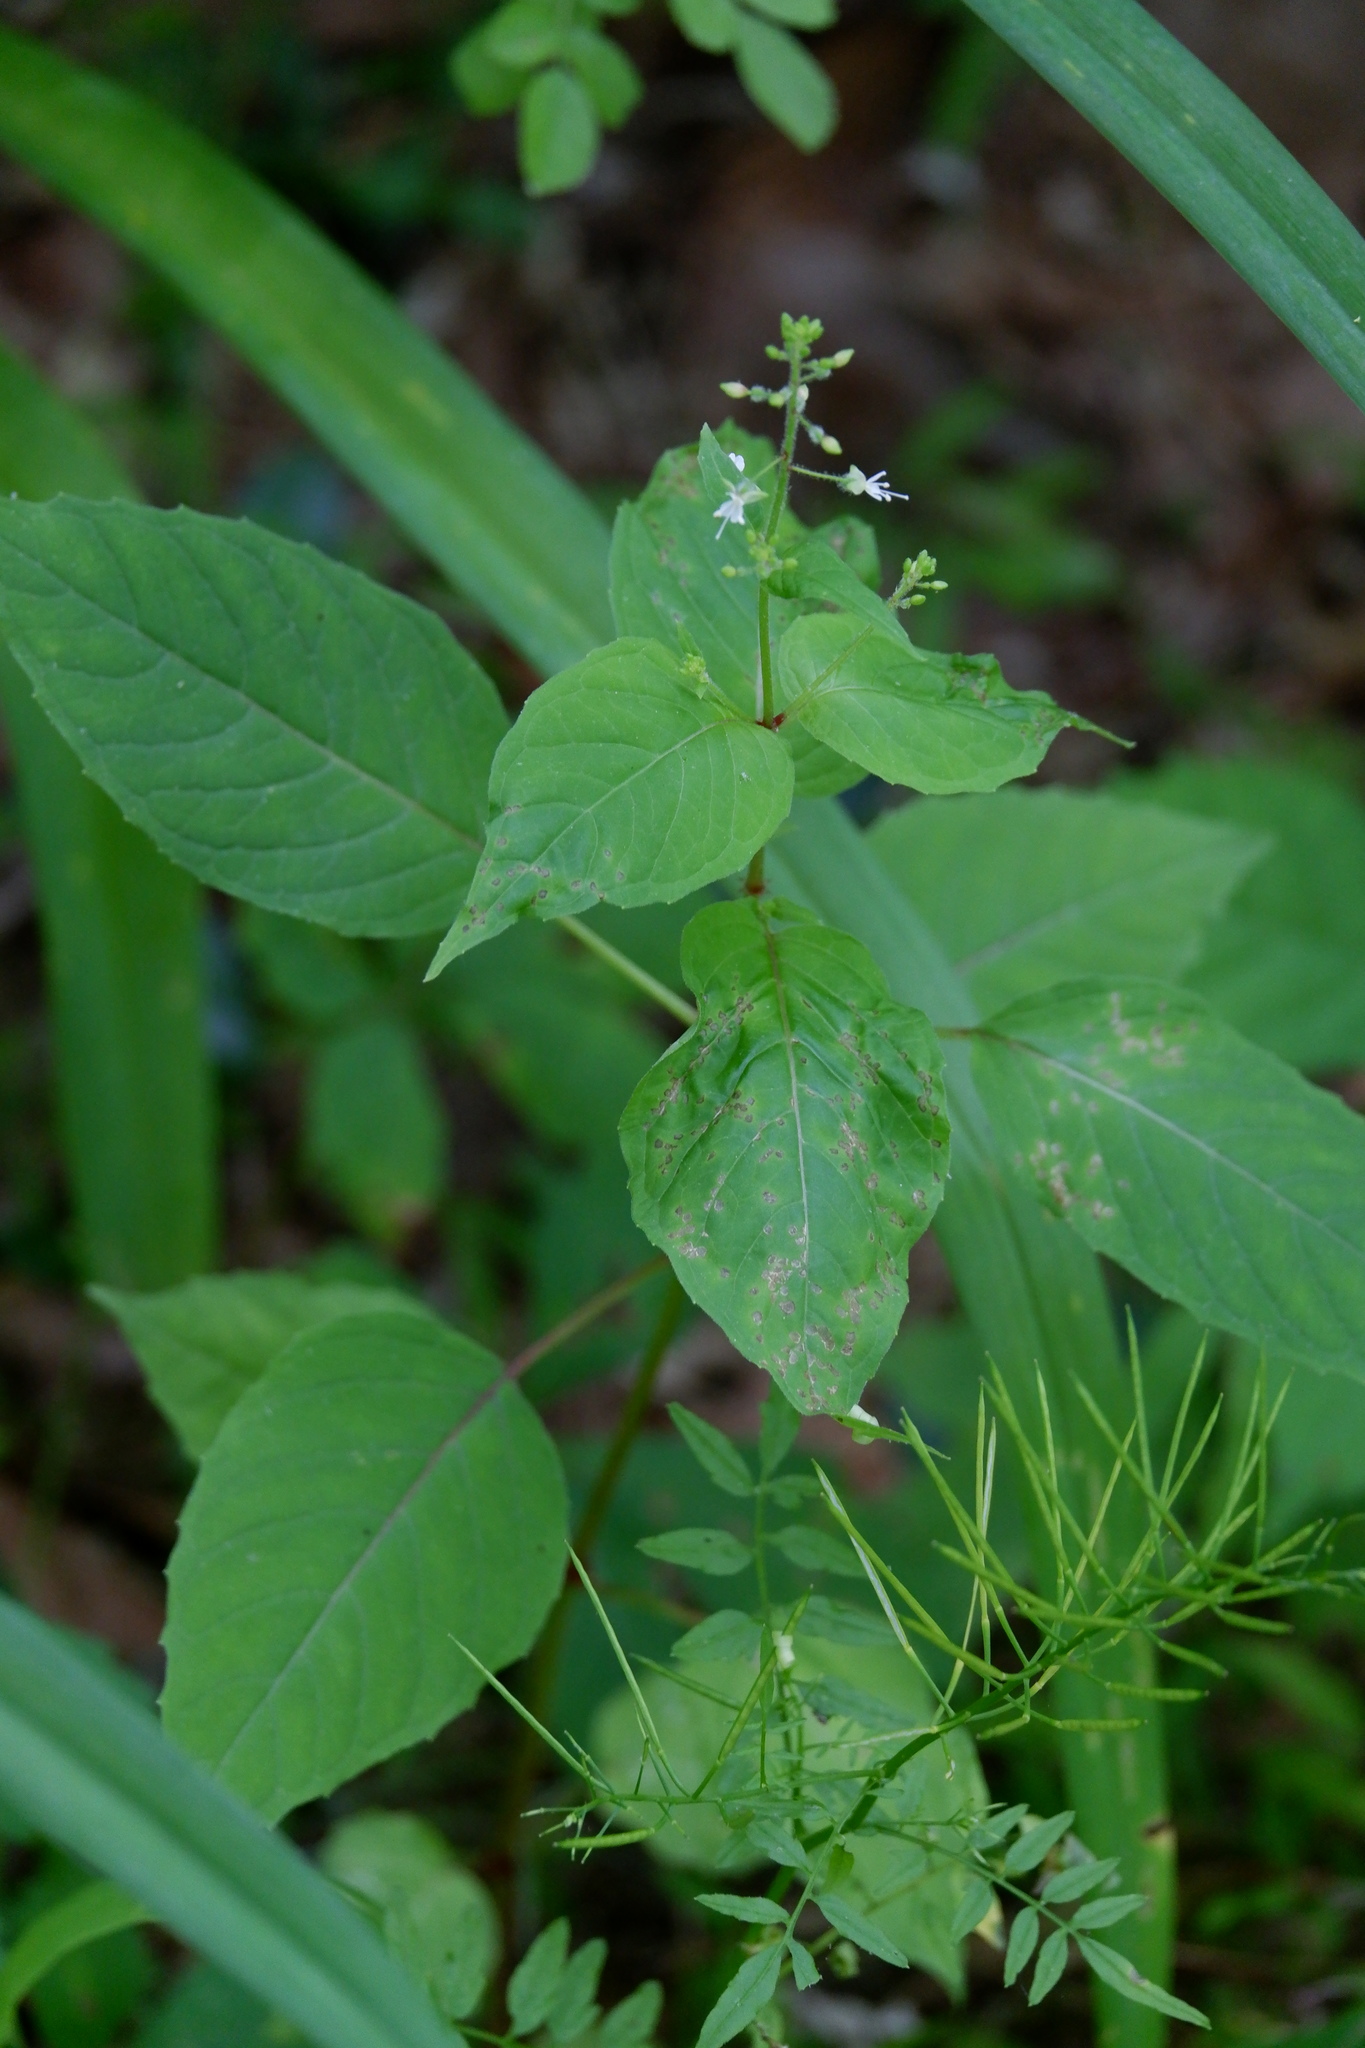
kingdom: Plantae
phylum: Tracheophyta
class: Magnoliopsida
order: Myrtales
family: Onagraceae
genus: Circaea
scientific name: Circaea canadensis
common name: Broad-leaved enchanter's nightshade
